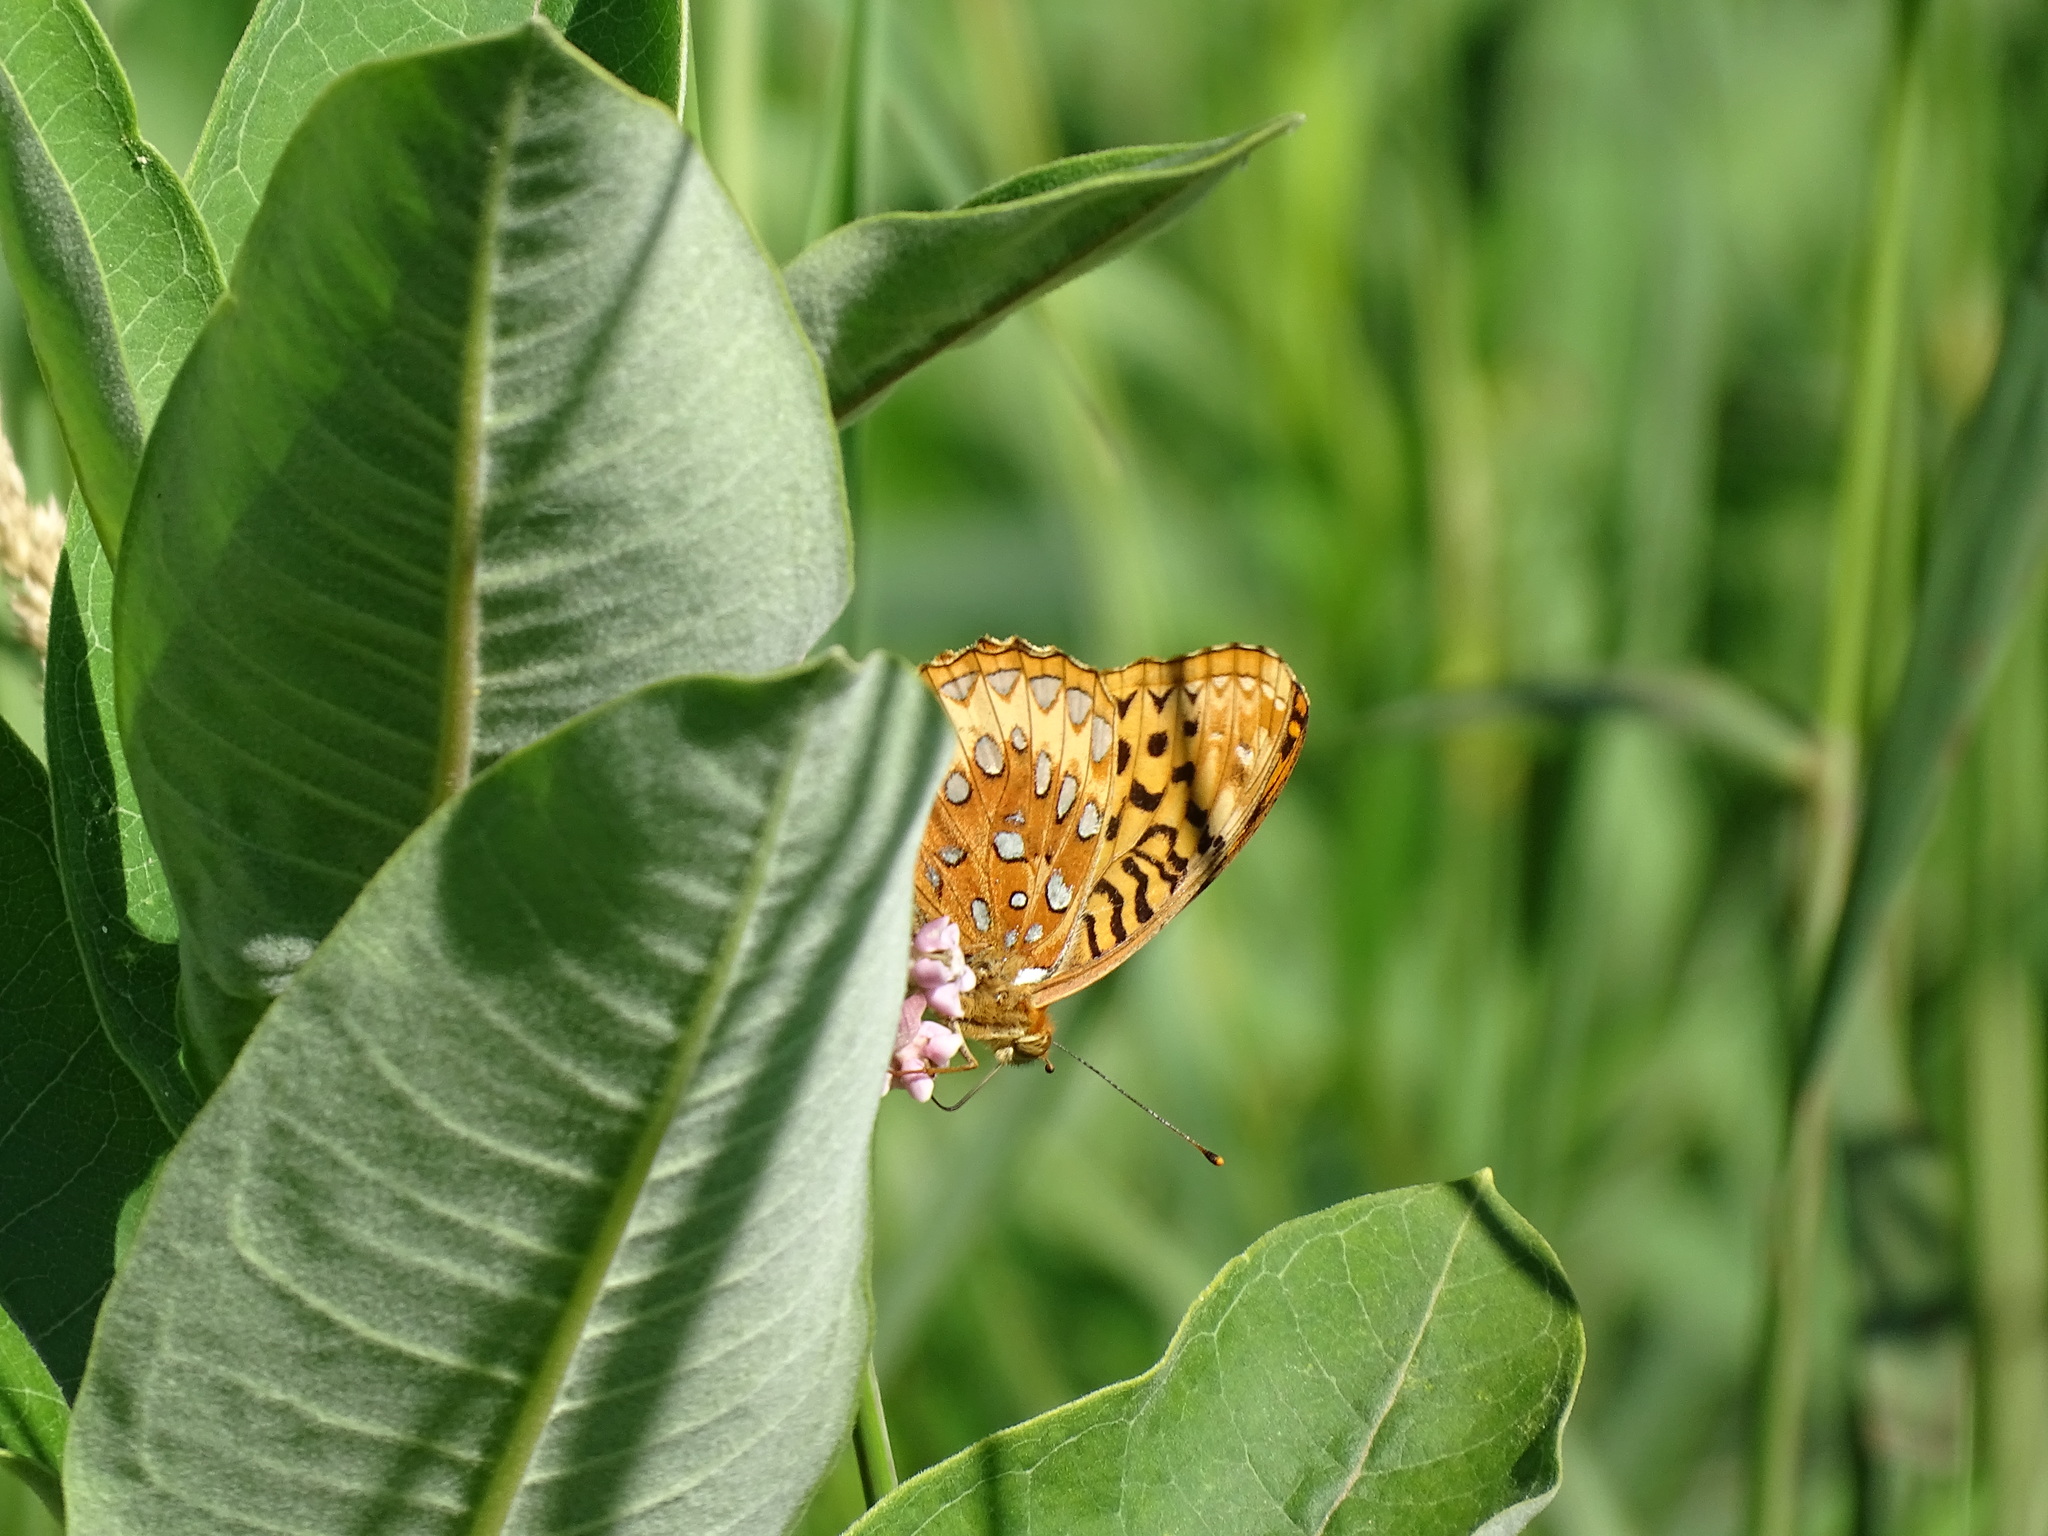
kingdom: Animalia
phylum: Arthropoda
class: Insecta
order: Lepidoptera
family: Nymphalidae
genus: Speyeria
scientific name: Speyeria cybele
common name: Great spangled fritillary
